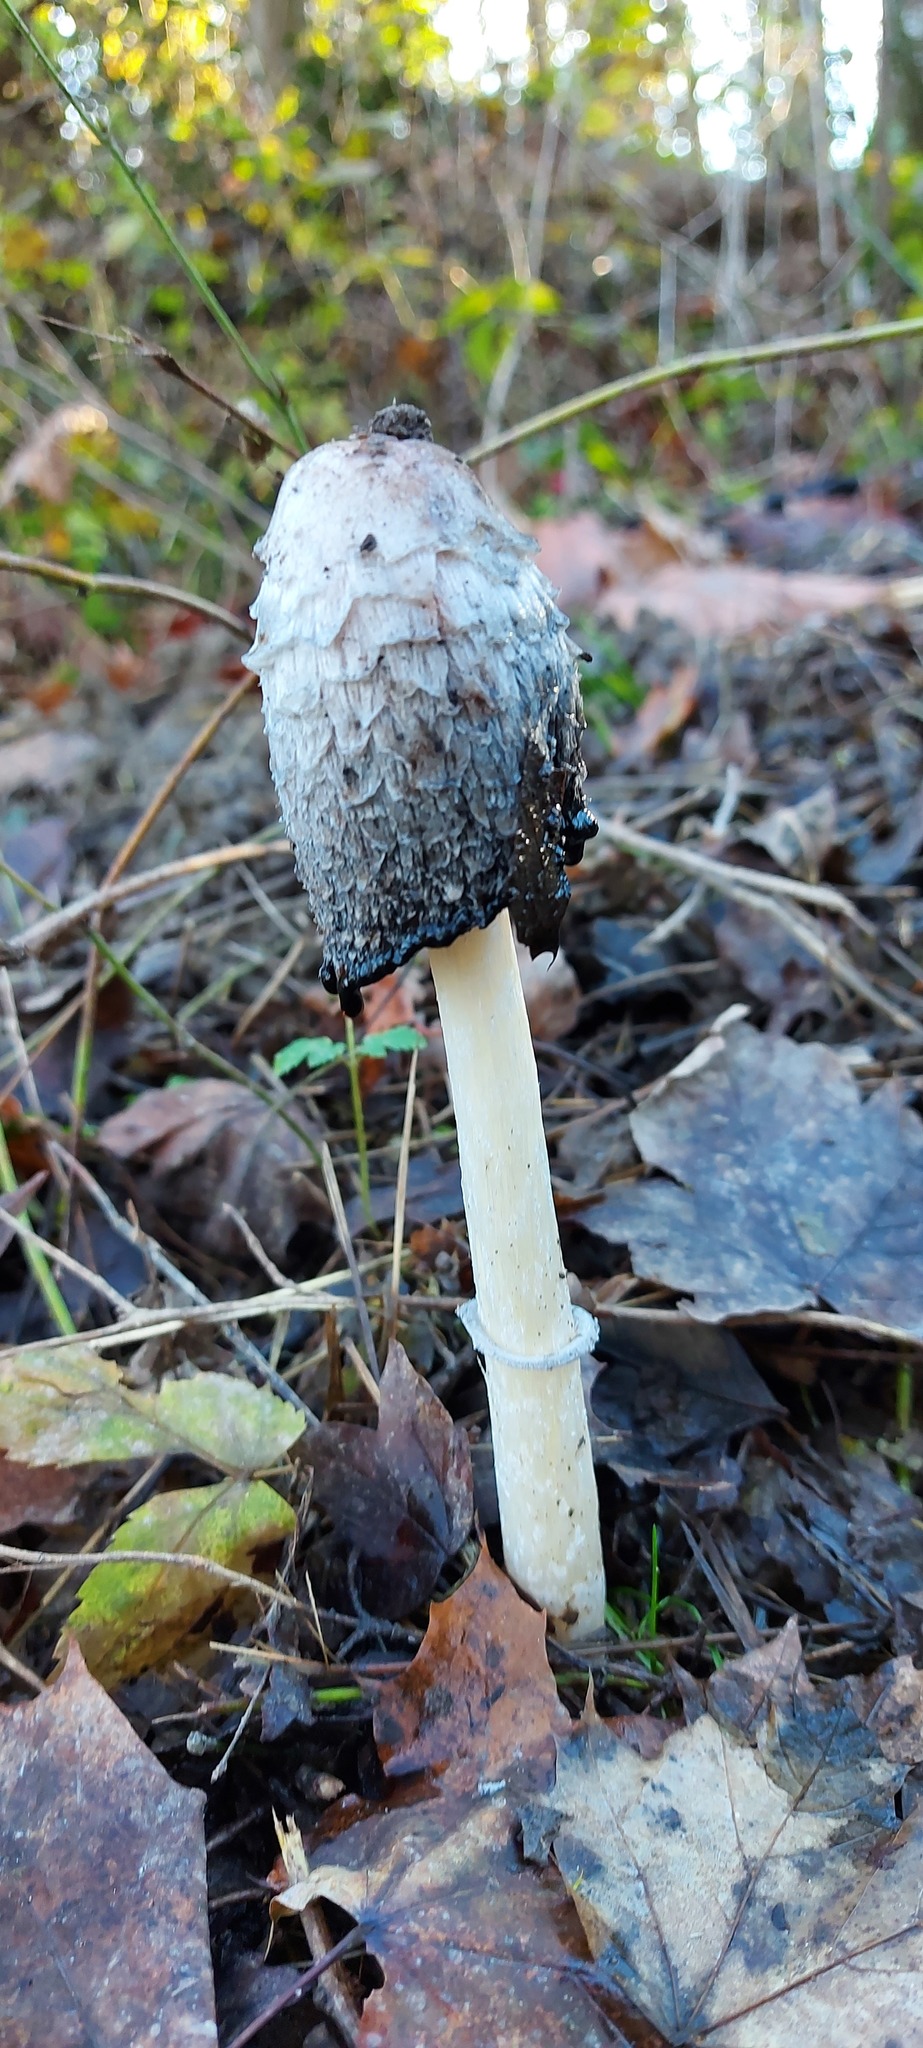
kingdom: Fungi
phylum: Basidiomycota
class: Agaricomycetes
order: Agaricales
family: Agaricaceae
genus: Coprinus
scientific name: Coprinus comatus
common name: Lawyer's wig
